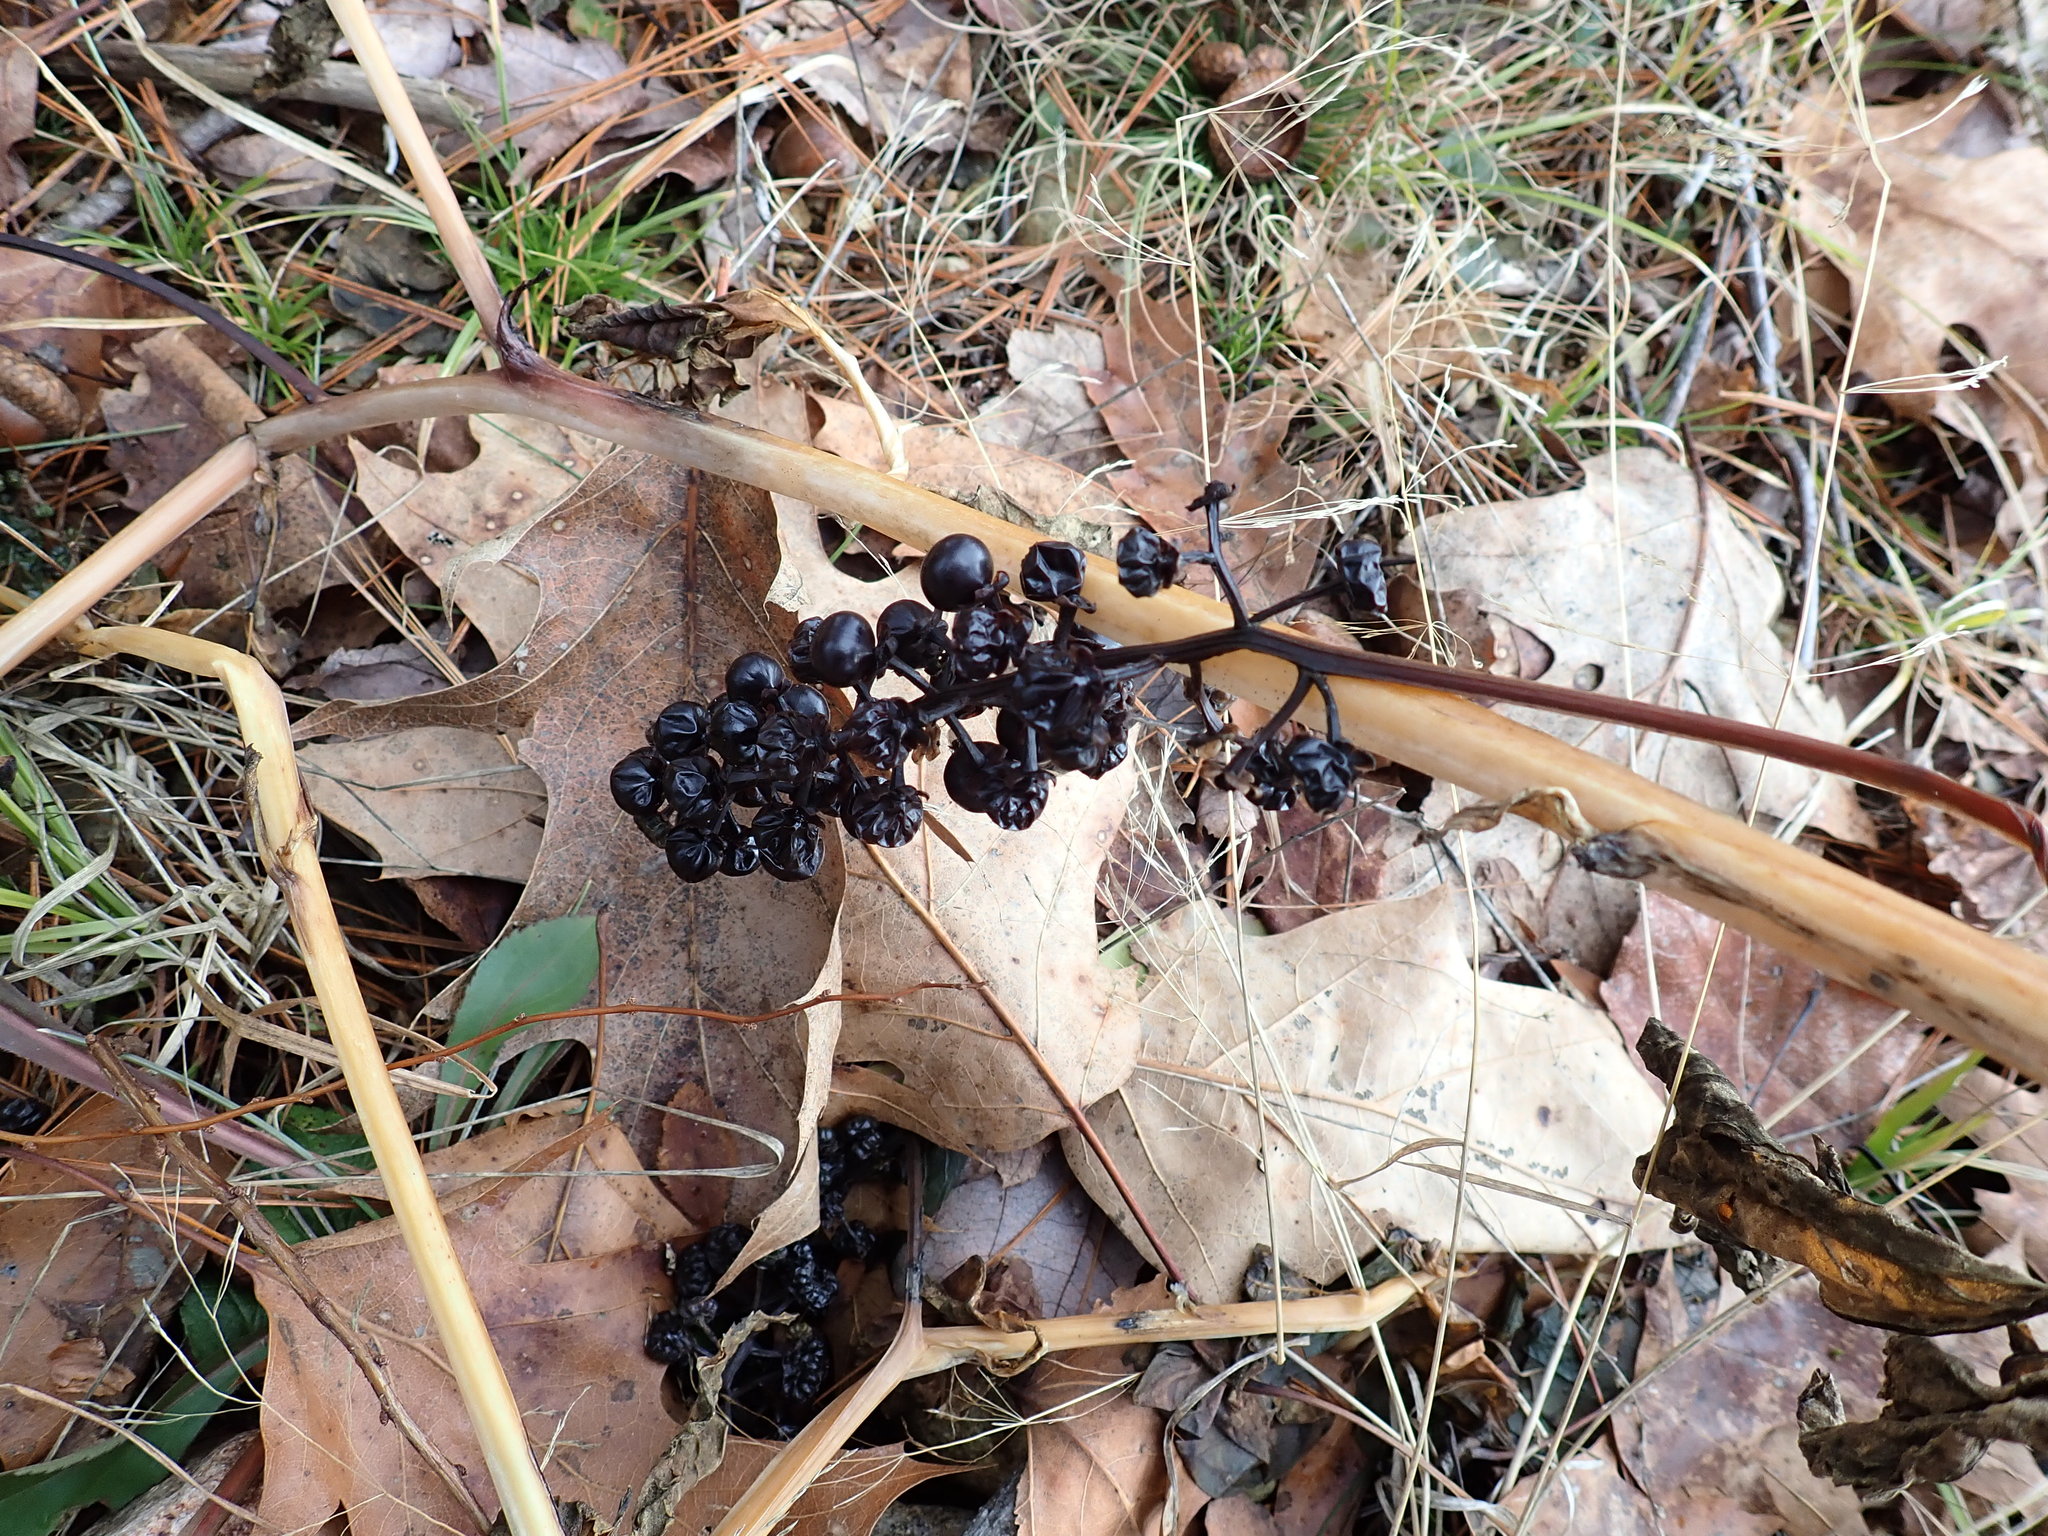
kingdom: Plantae
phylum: Tracheophyta
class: Magnoliopsida
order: Caryophyllales
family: Phytolaccaceae
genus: Phytolacca
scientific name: Phytolacca americana
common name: American pokeweed
